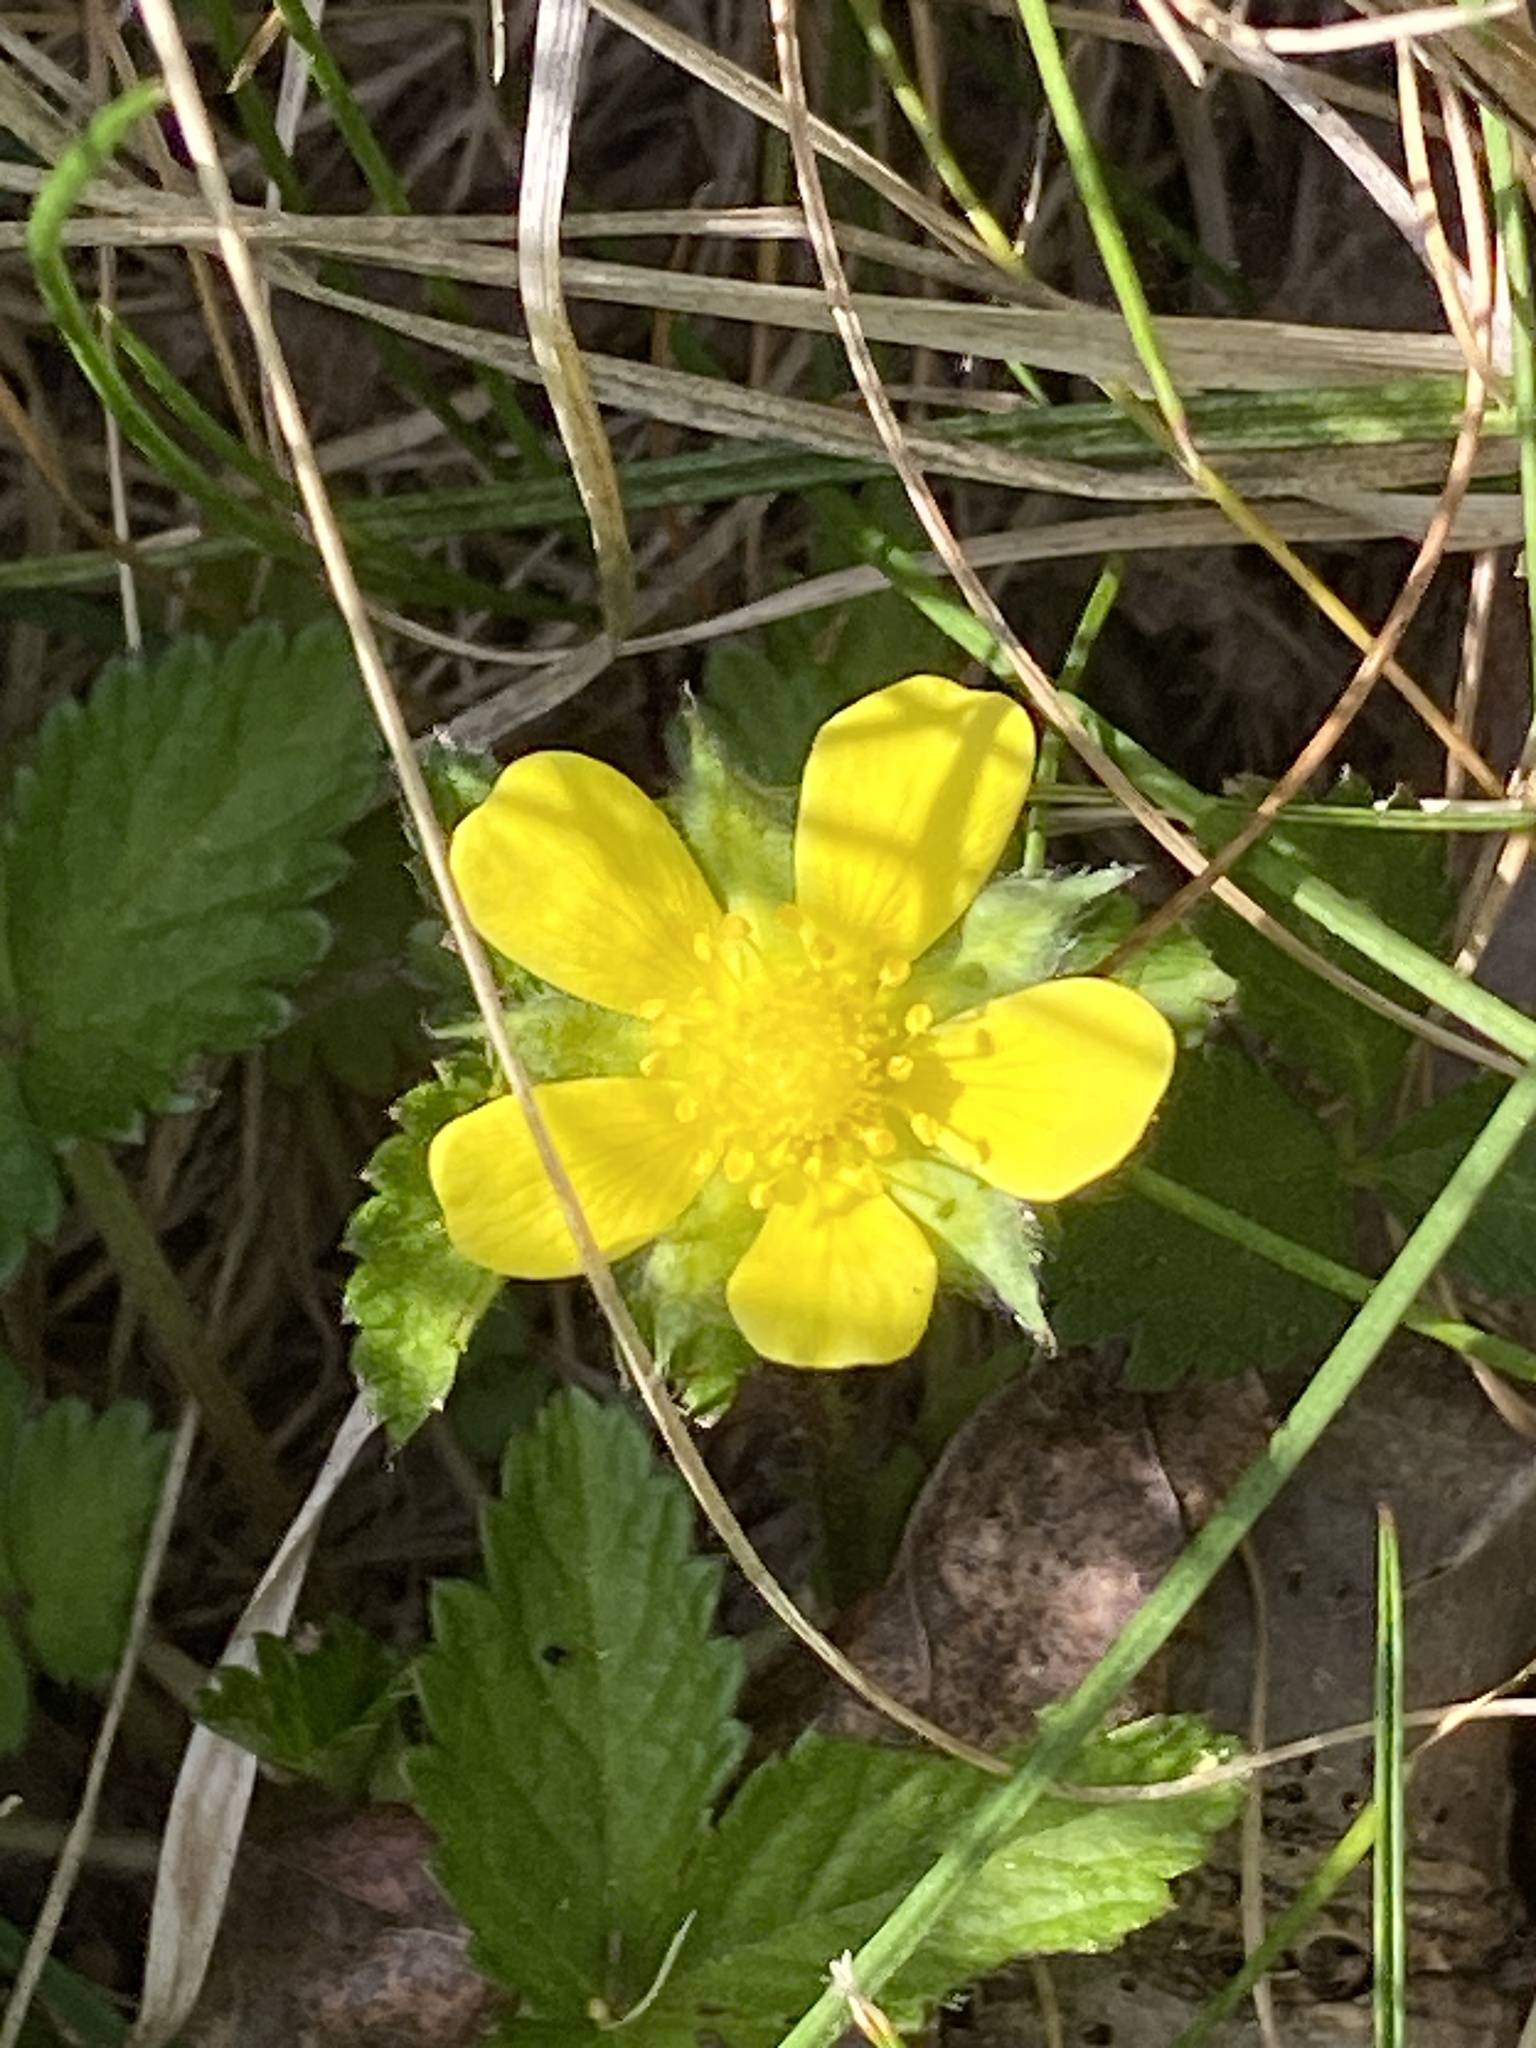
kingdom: Plantae
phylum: Tracheophyta
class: Magnoliopsida
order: Rosales
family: Rosaceae
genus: Potentilla
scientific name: Potentilla indica
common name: Yellow-flowered strawberry
